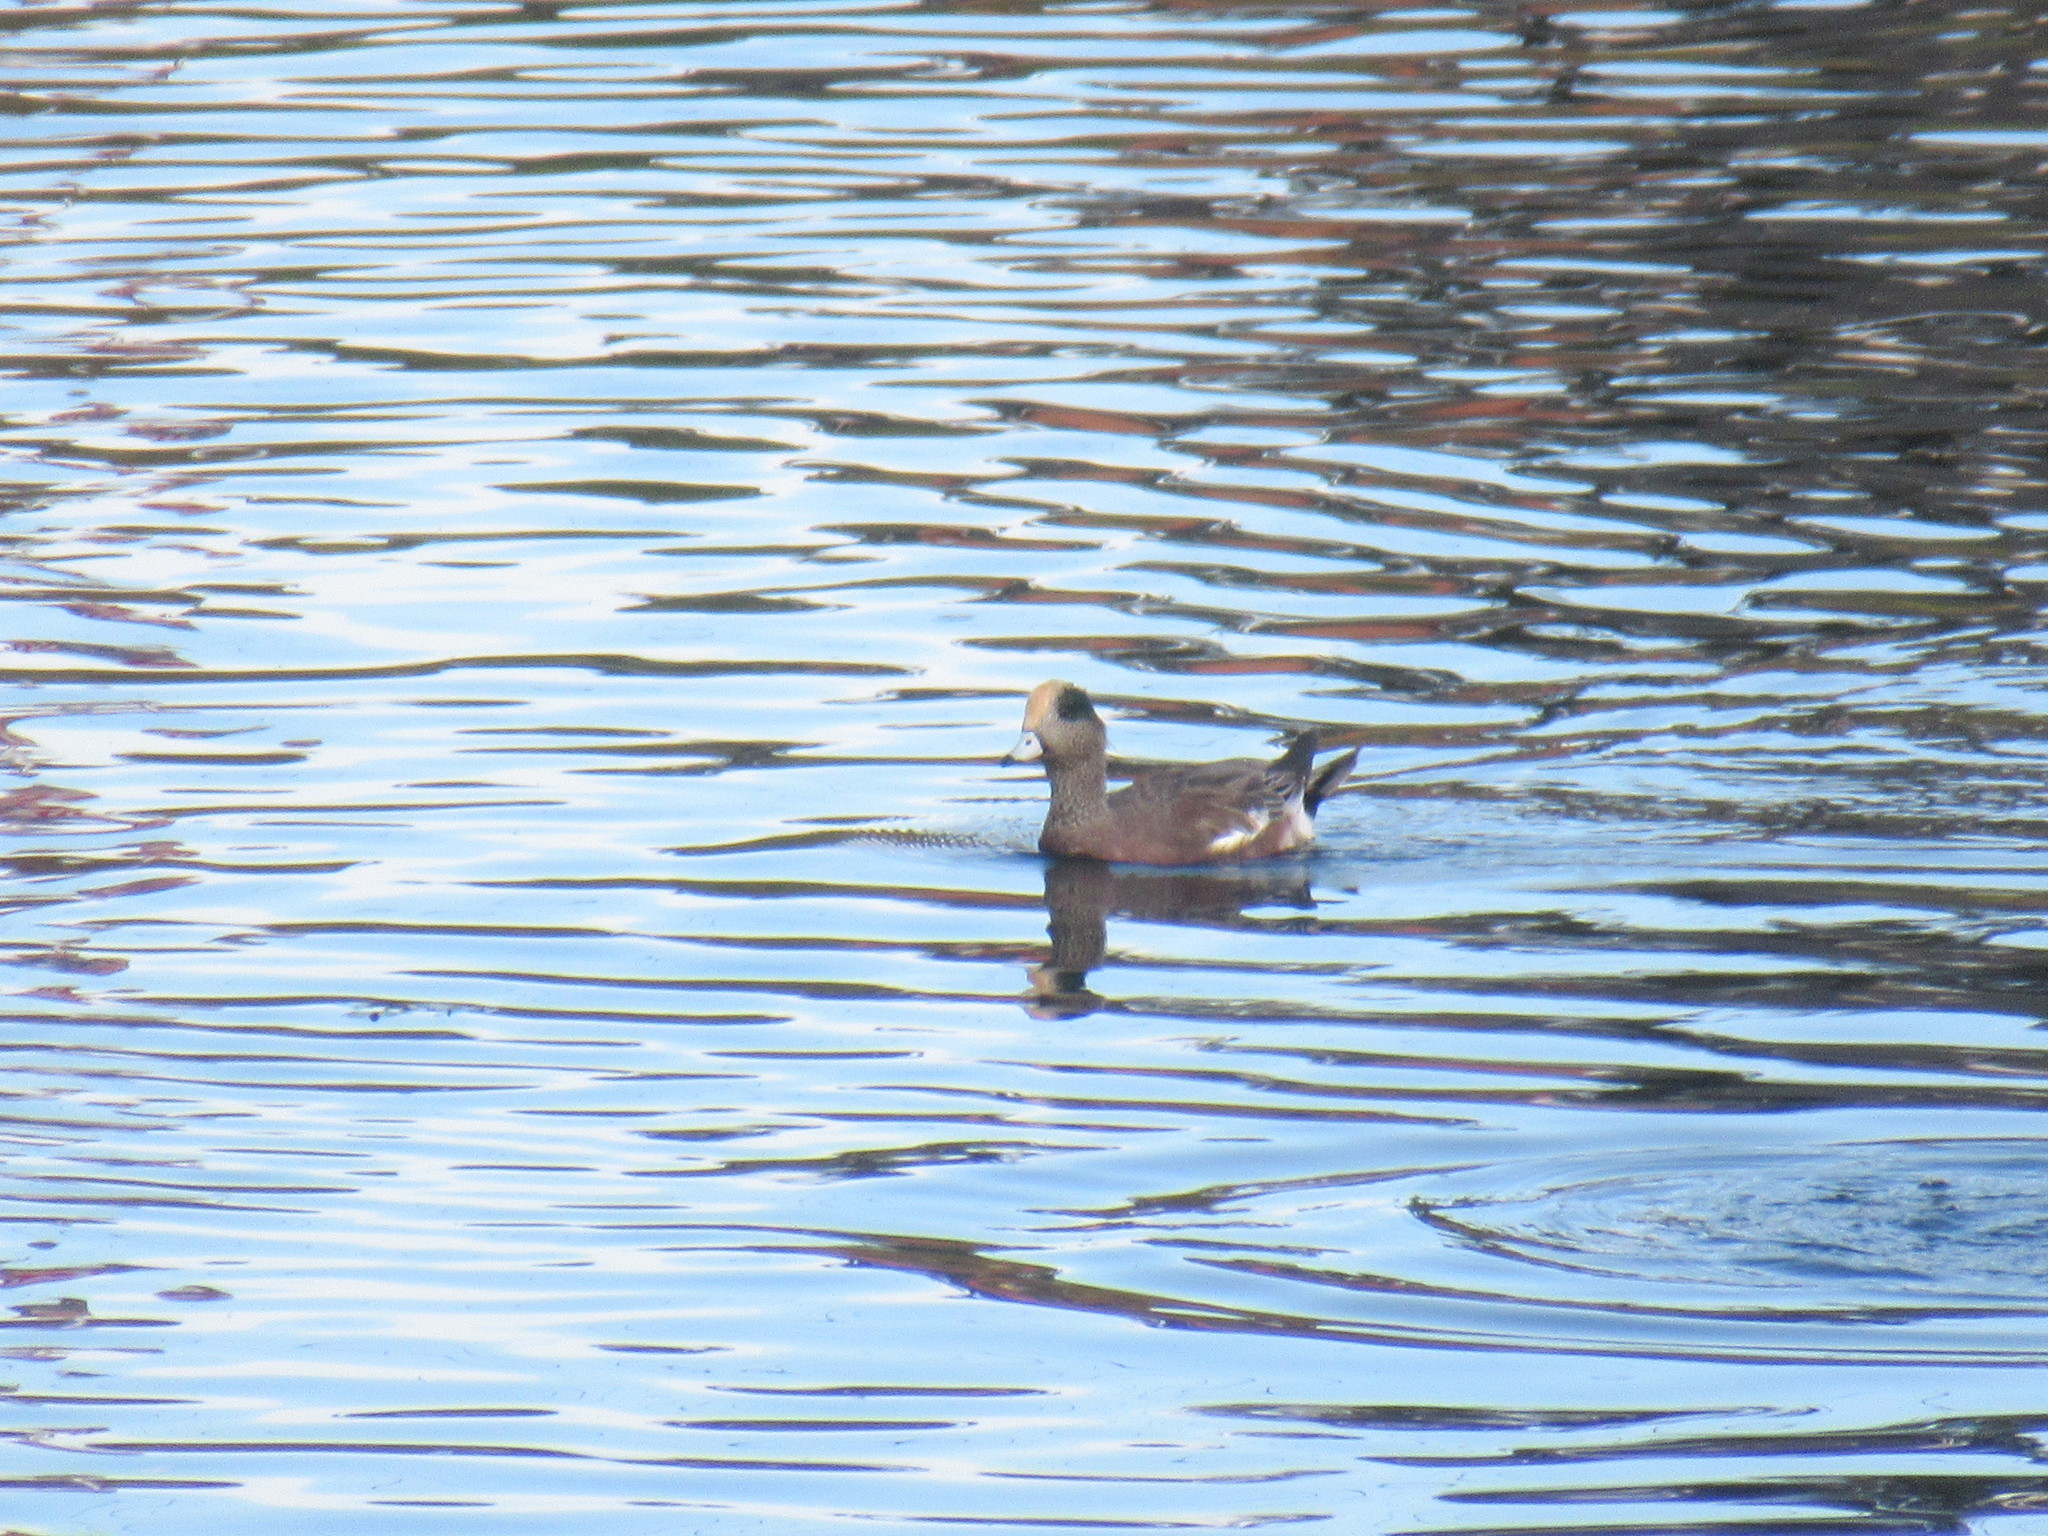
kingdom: Animalia
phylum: Chordata
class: Aves
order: Anseriformes
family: Anatidae
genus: Mareca
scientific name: Mareca americana
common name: American wigeon
